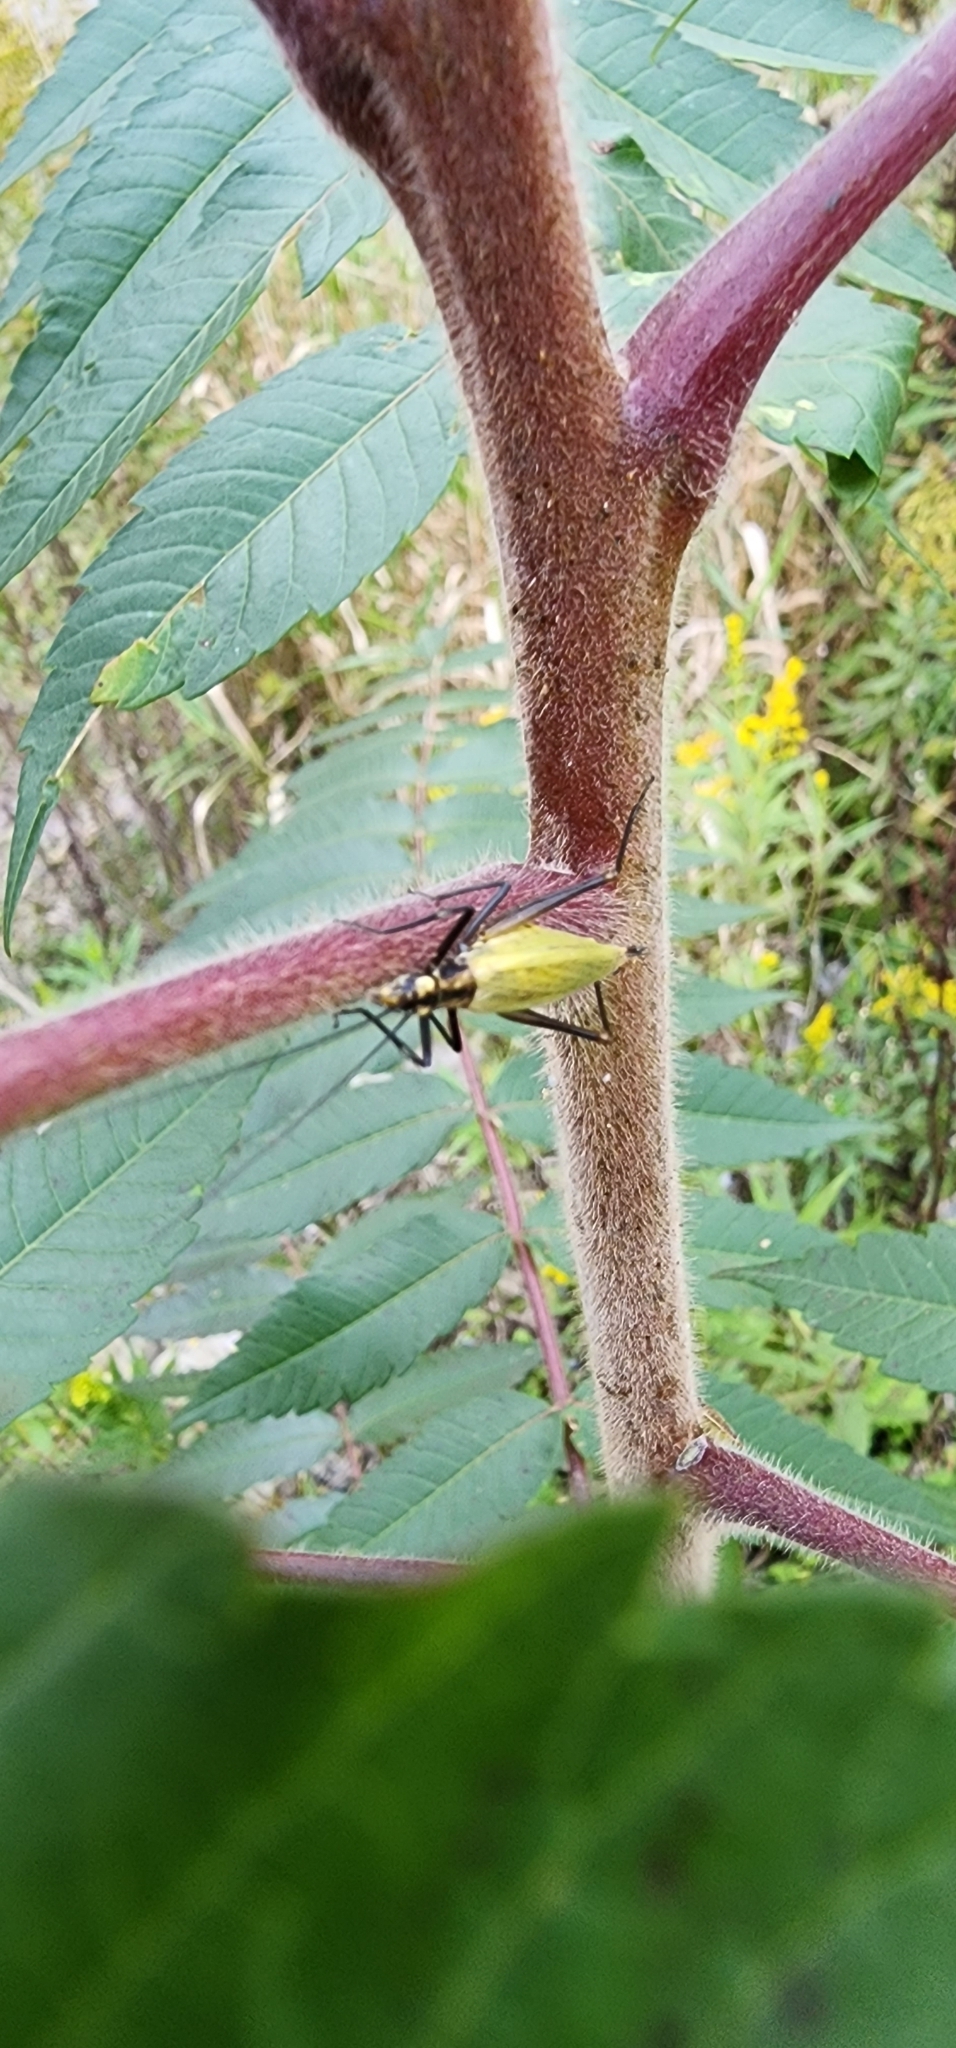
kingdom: Animalia
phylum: Arthropoda
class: Insecta
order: Orthoptera
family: Gryllidae
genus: Oecanthus
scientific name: Oecanthus nigricornis
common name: Black-horned tree cricket
